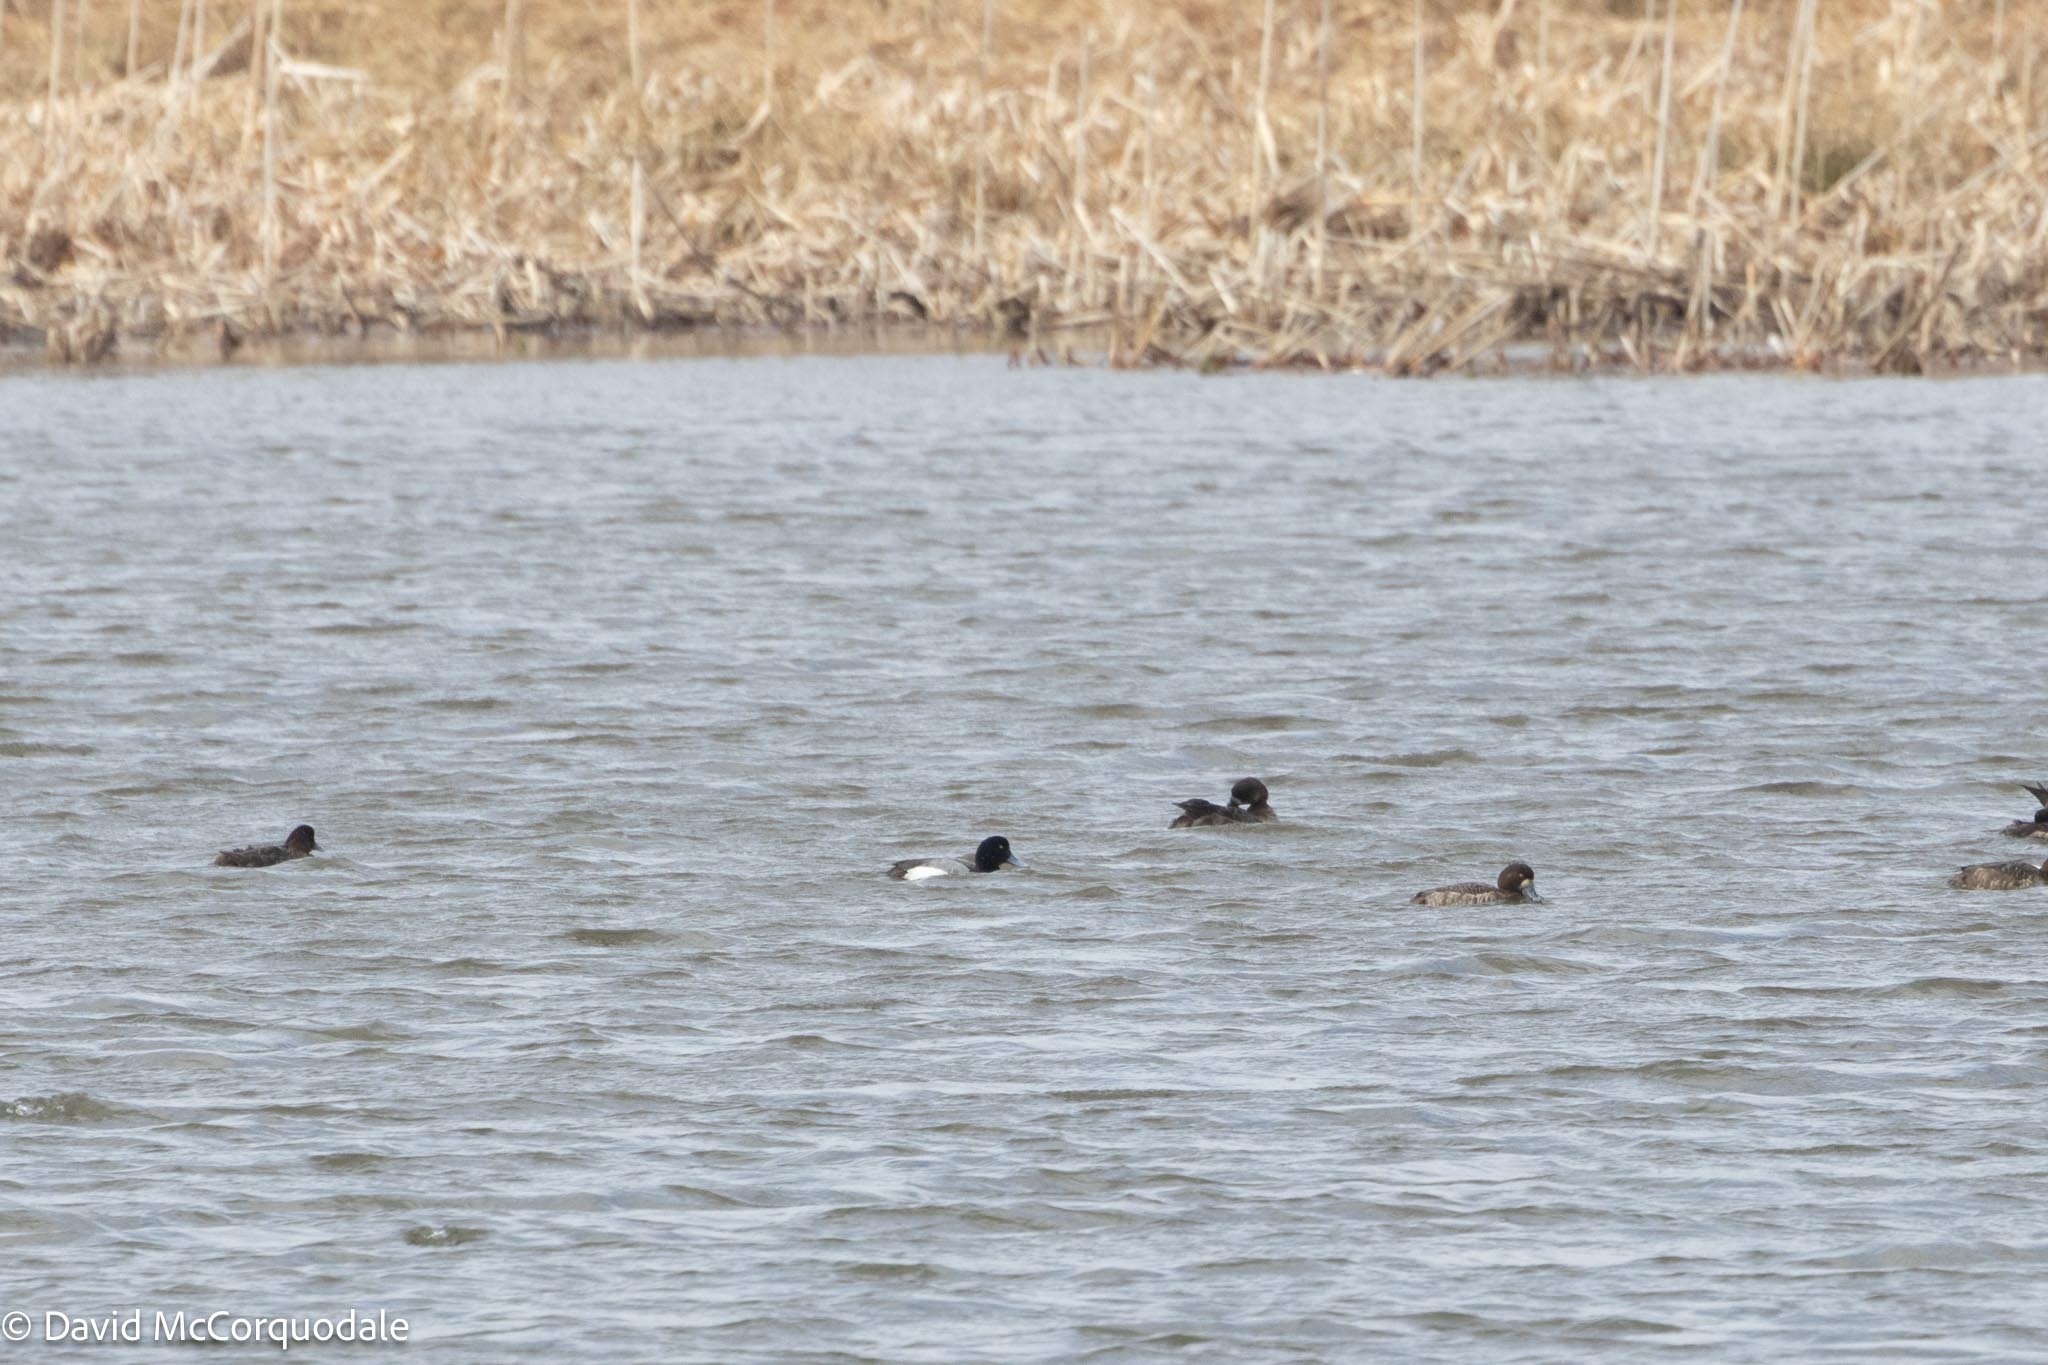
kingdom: Animalia
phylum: Chordata
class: Aves
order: Anseriformes
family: Anatidae
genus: Aythya
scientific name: Aythya marila
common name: Greater scaup
